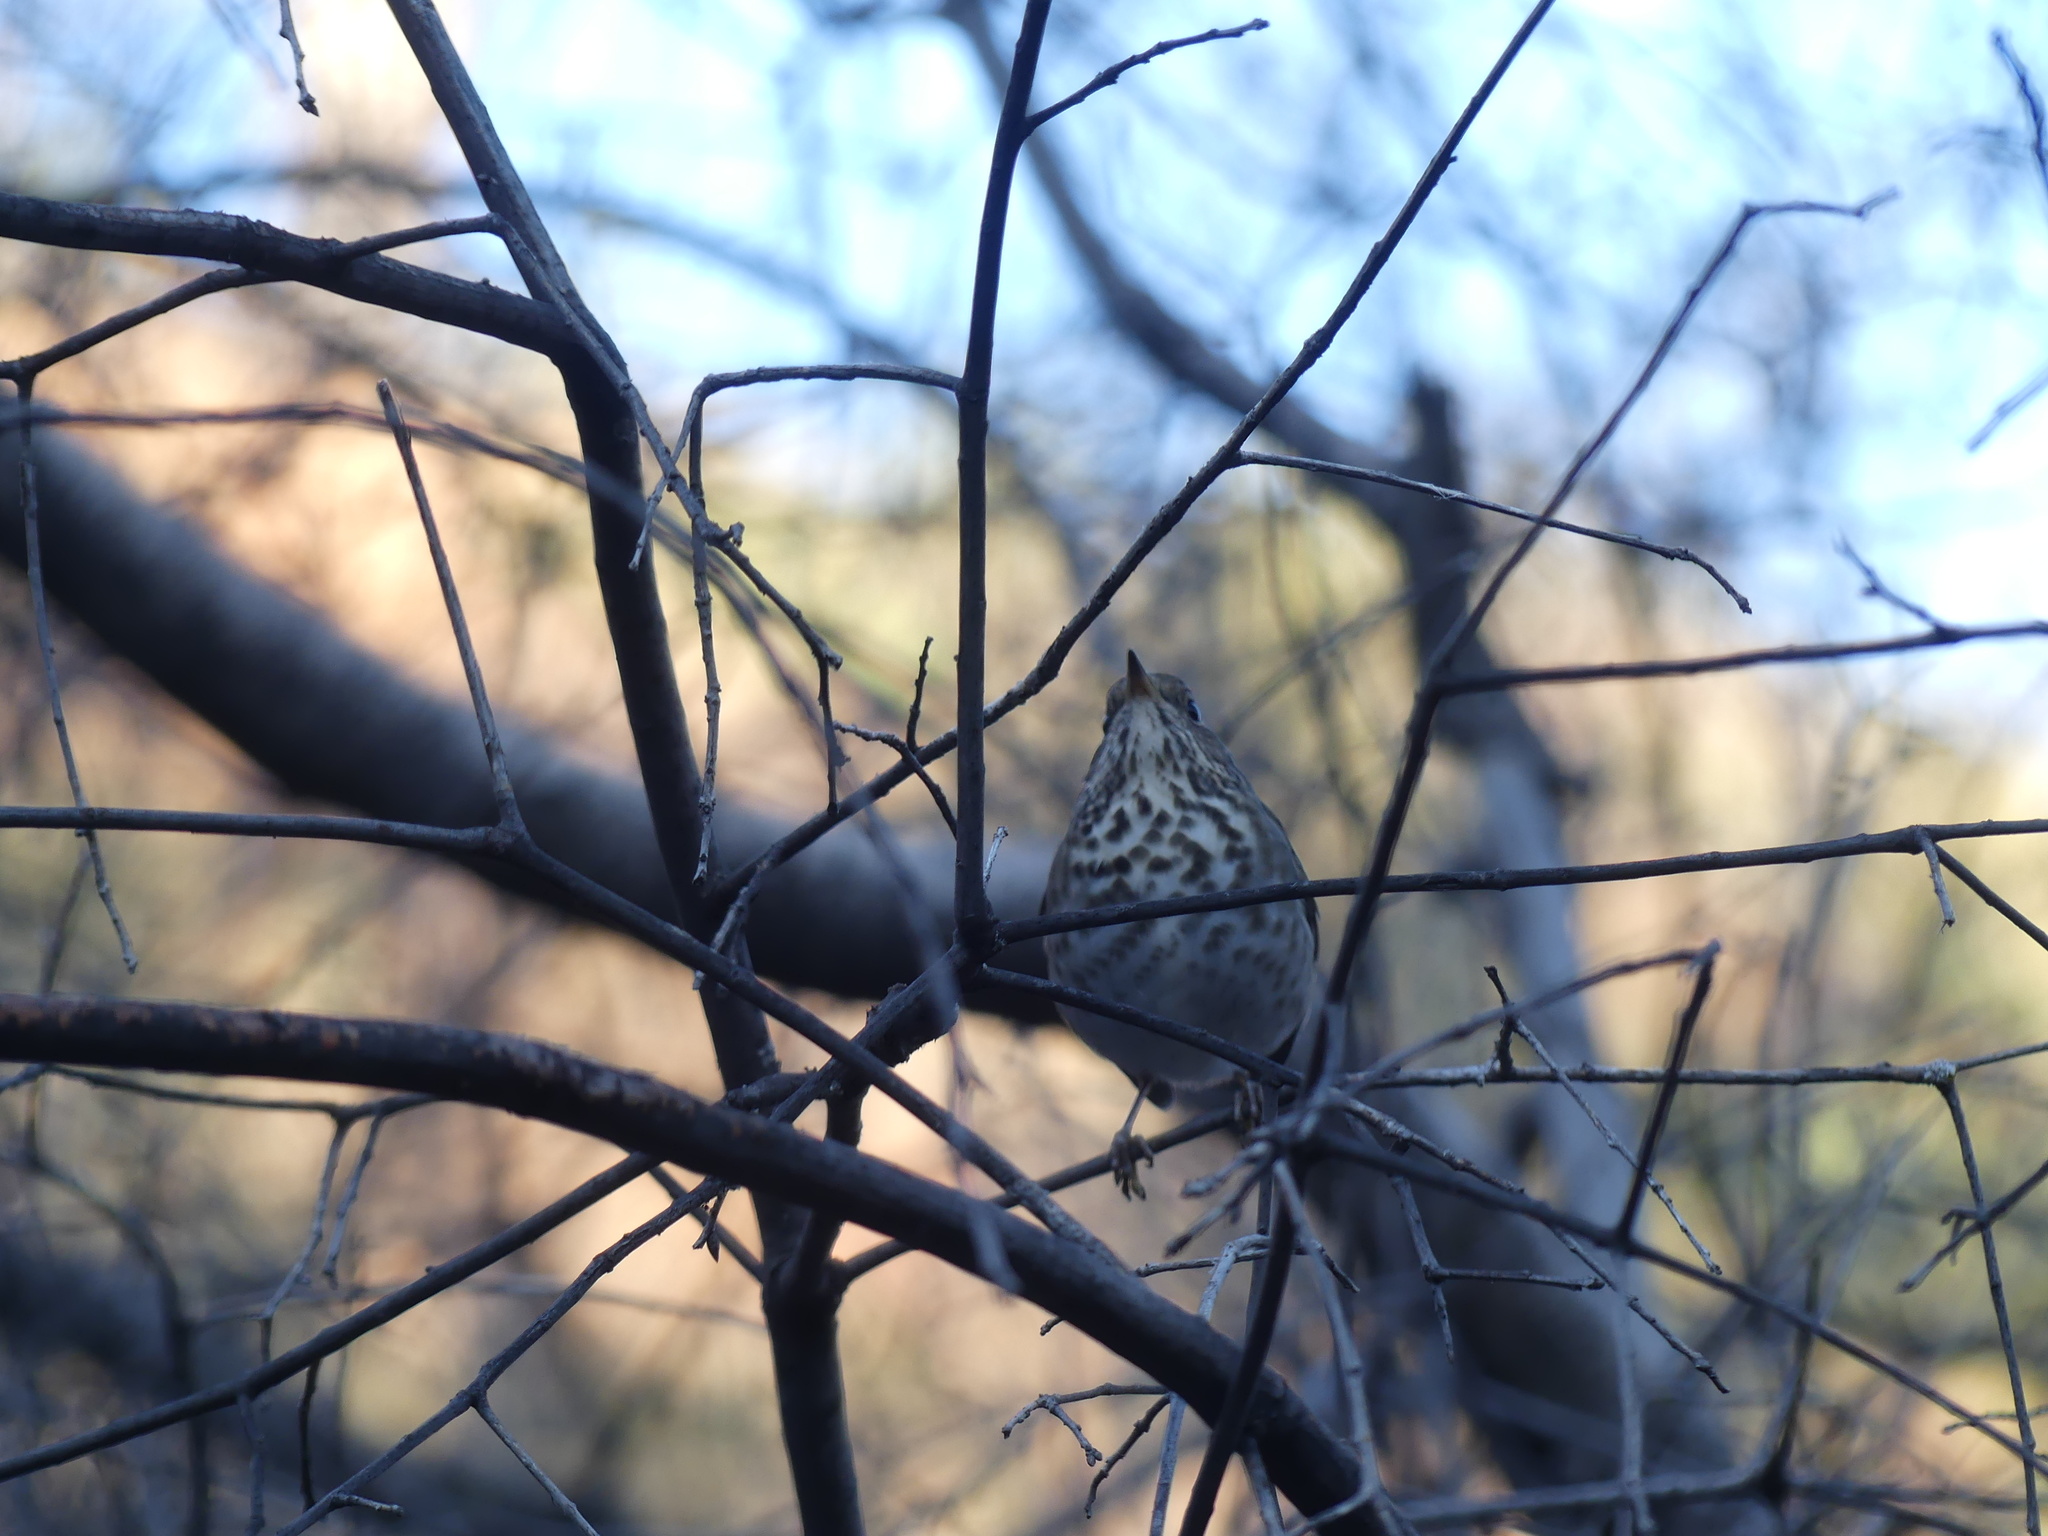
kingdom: Animalia
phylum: Chordata
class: Aves
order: Passeriformes
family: Turdidae
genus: Catharus
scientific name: Catharus guttatus
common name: Hermit thrush
